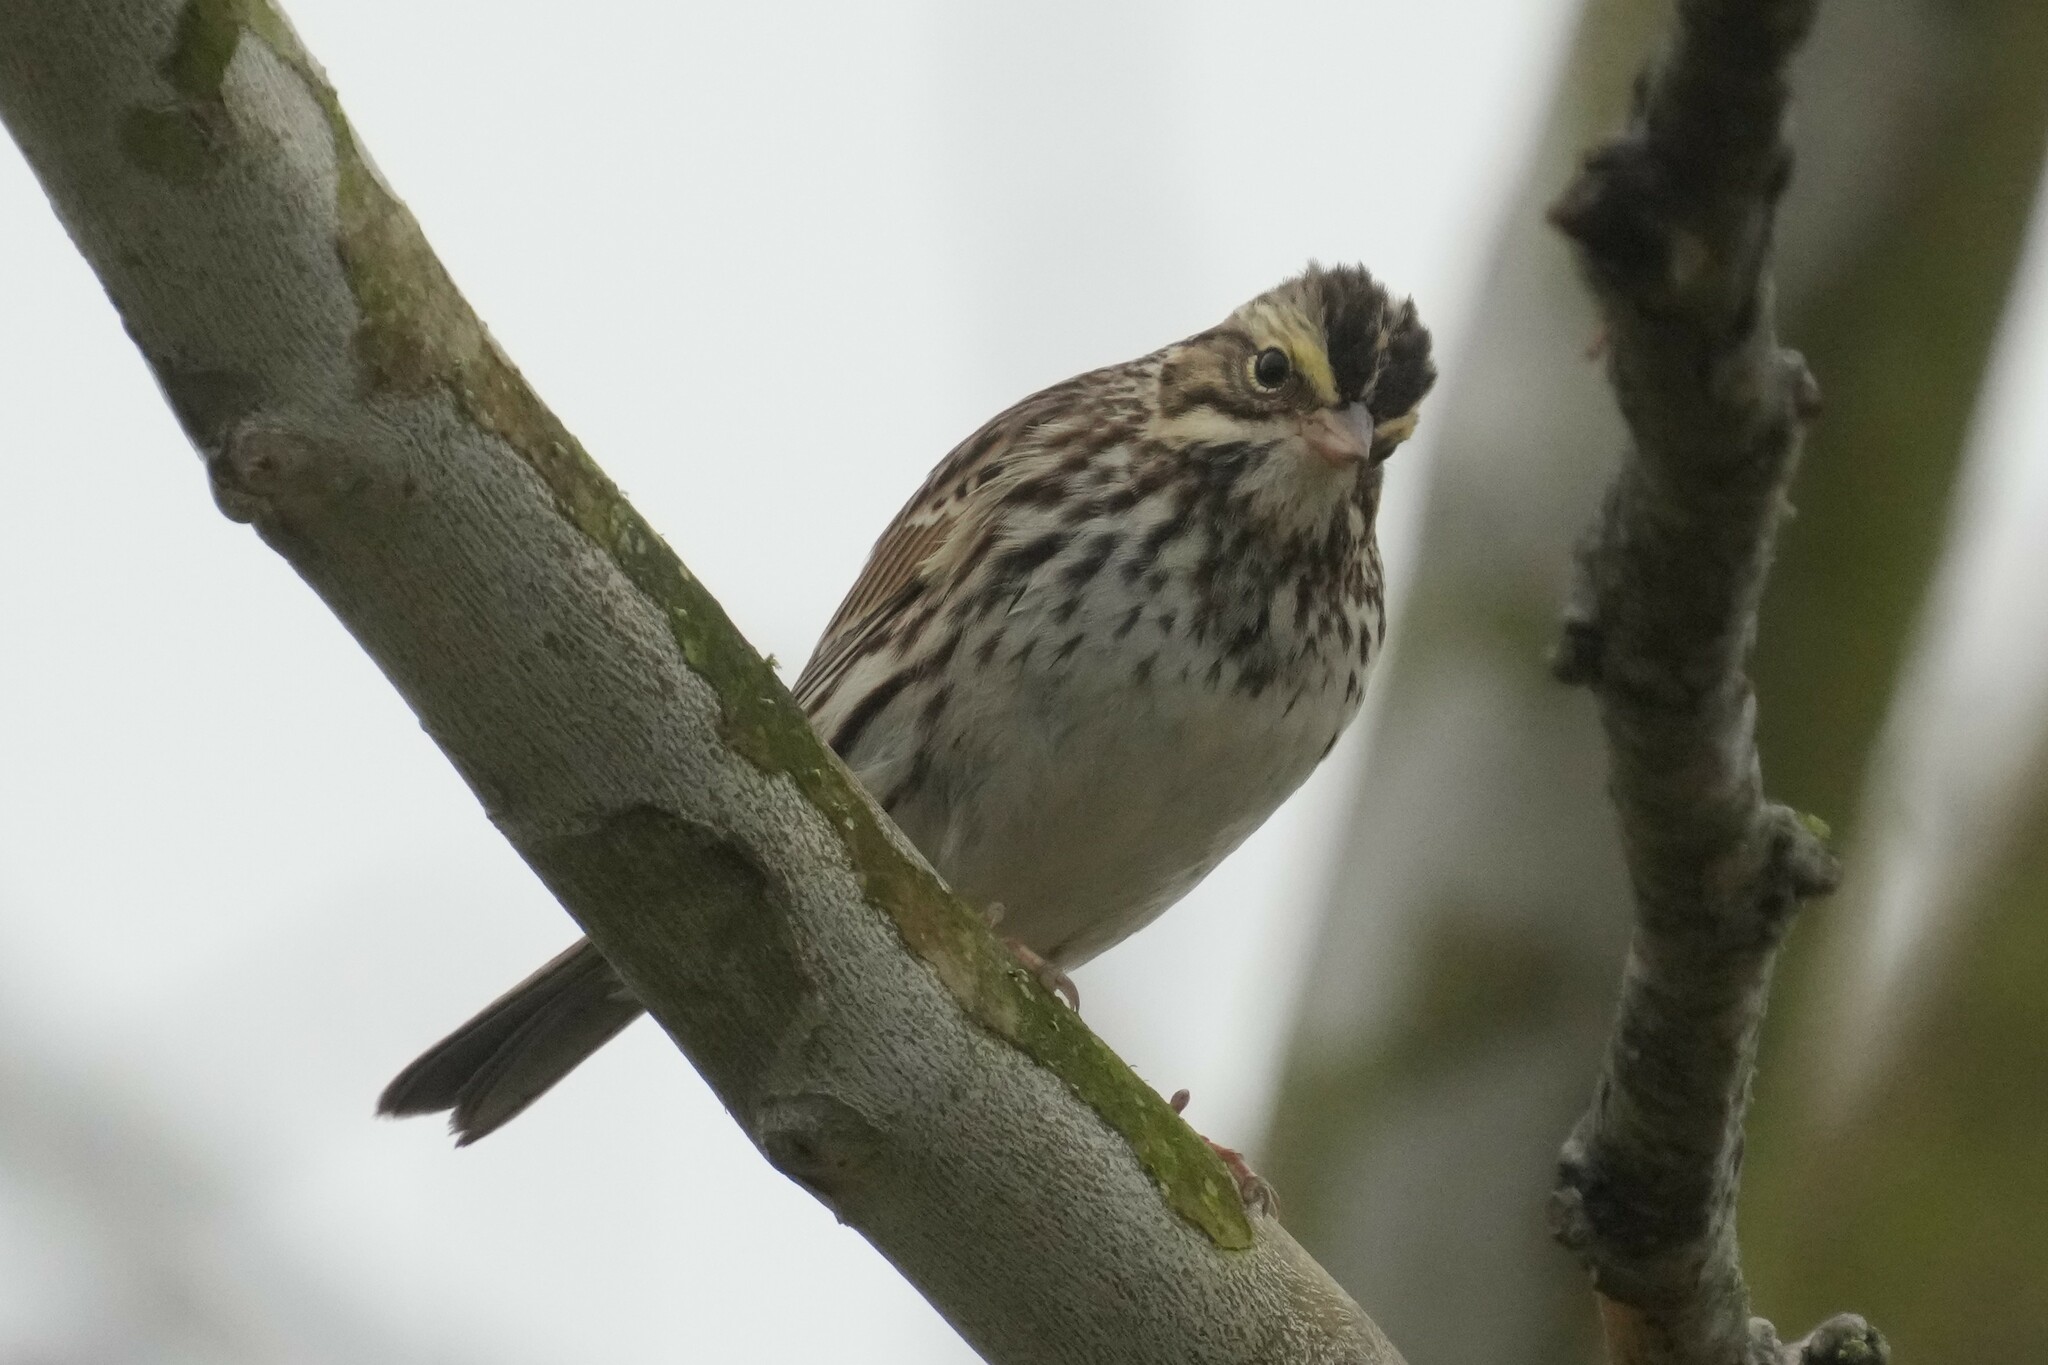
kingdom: Animalia
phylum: Chordata
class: Aves
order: Passeriformes
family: Passerellidae
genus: Passerculus
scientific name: Passerculus sandwichensis
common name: Savannah sparrow
